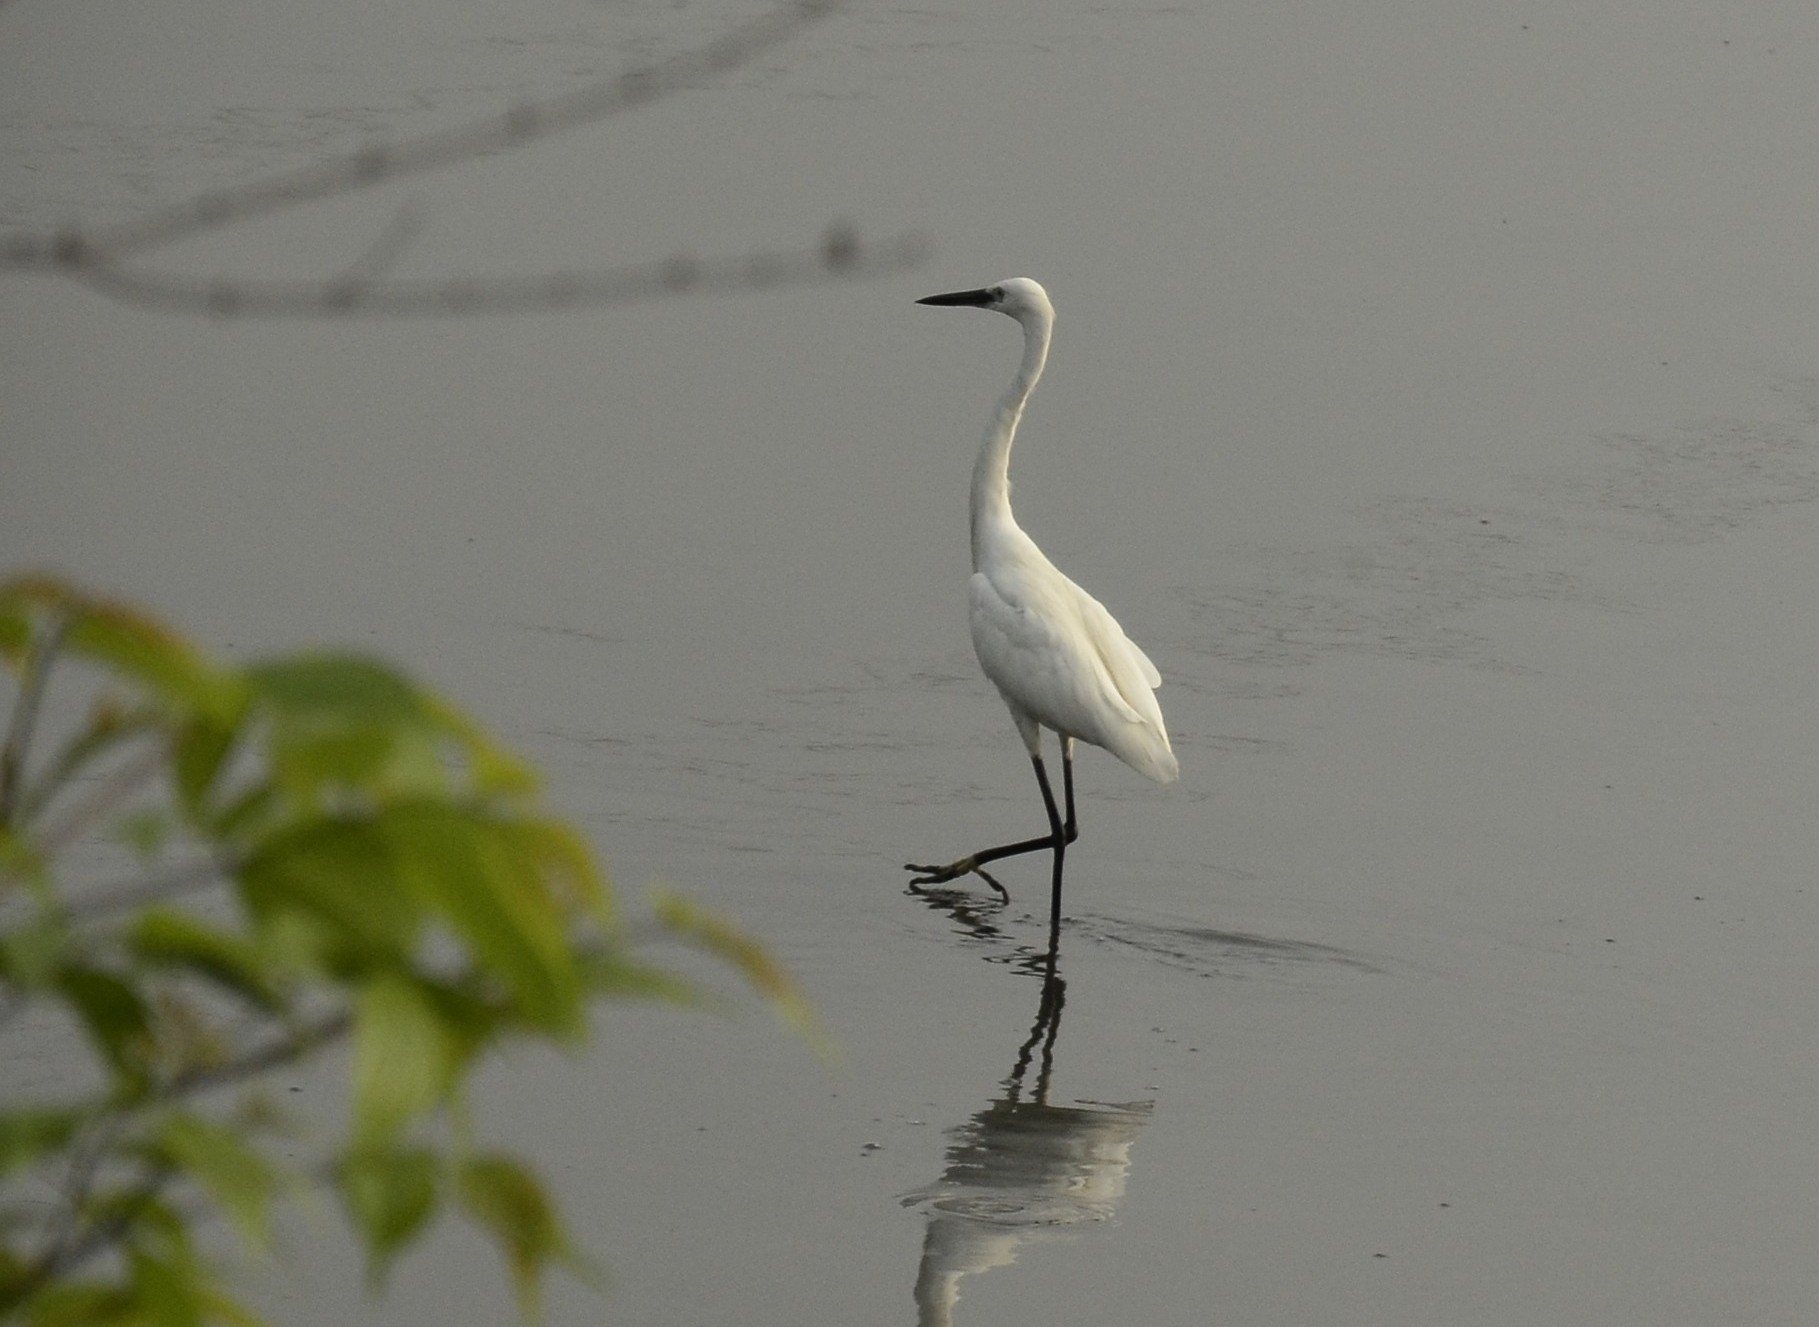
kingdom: Animalia
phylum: Chordata
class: Aves
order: Pelecaniformes
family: Ardeidae
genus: Egretta
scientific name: Egretta garzetta
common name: Little egret
